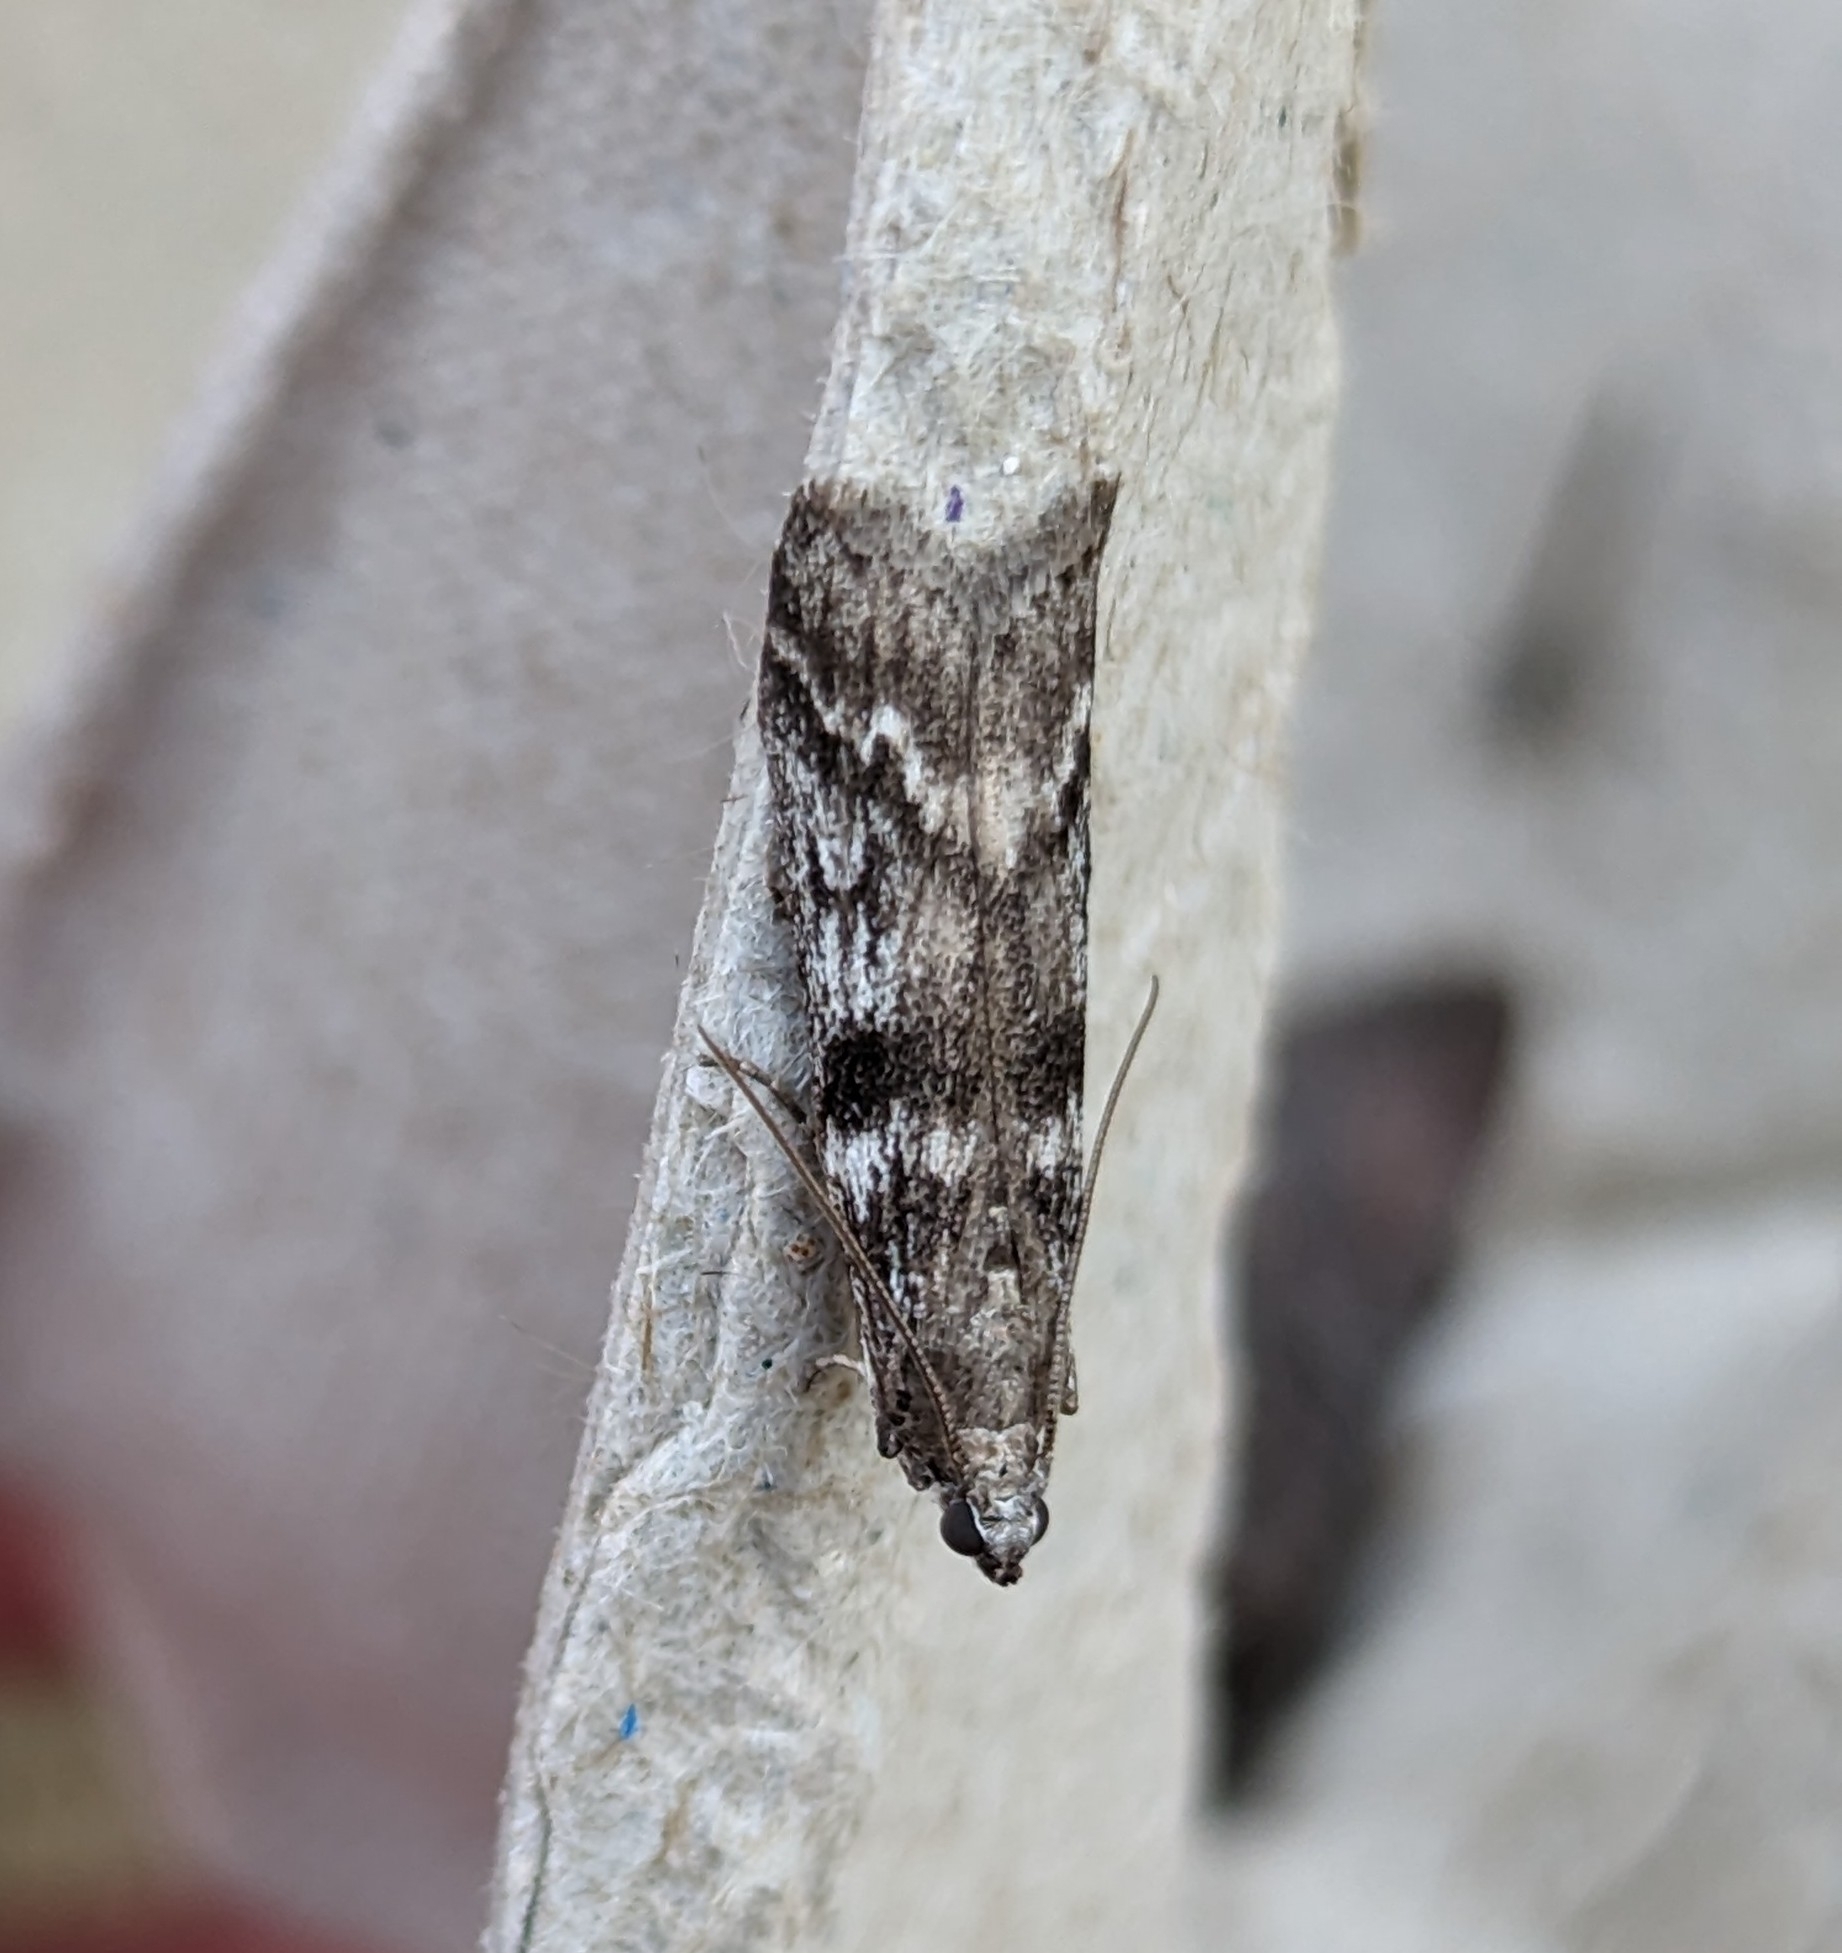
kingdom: Animalia
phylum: Arthropoda
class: Insecta
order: Lepidoptera
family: Pyralidae
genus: Zophodia
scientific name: Zophodia convolutella
